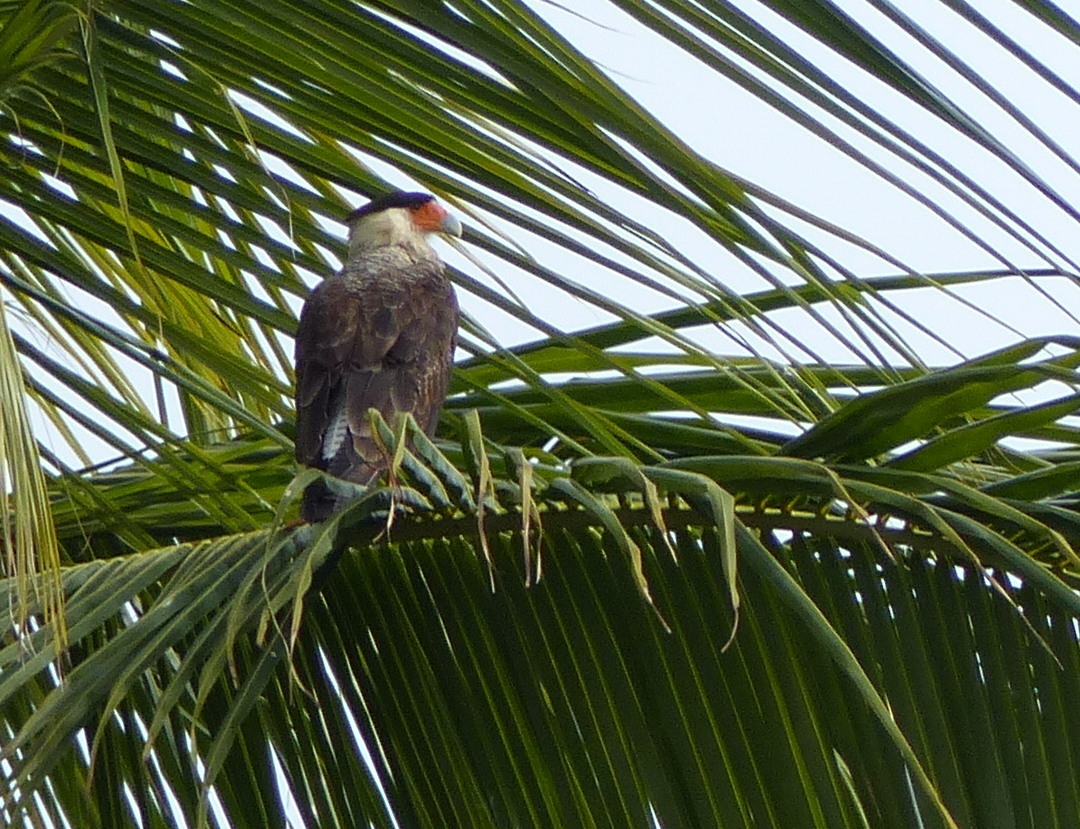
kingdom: Animalia
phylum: Chordata
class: Aves
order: Falconiformes
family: Falconidae
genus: Caracara
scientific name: Caracara plancus
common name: Southern caracara
